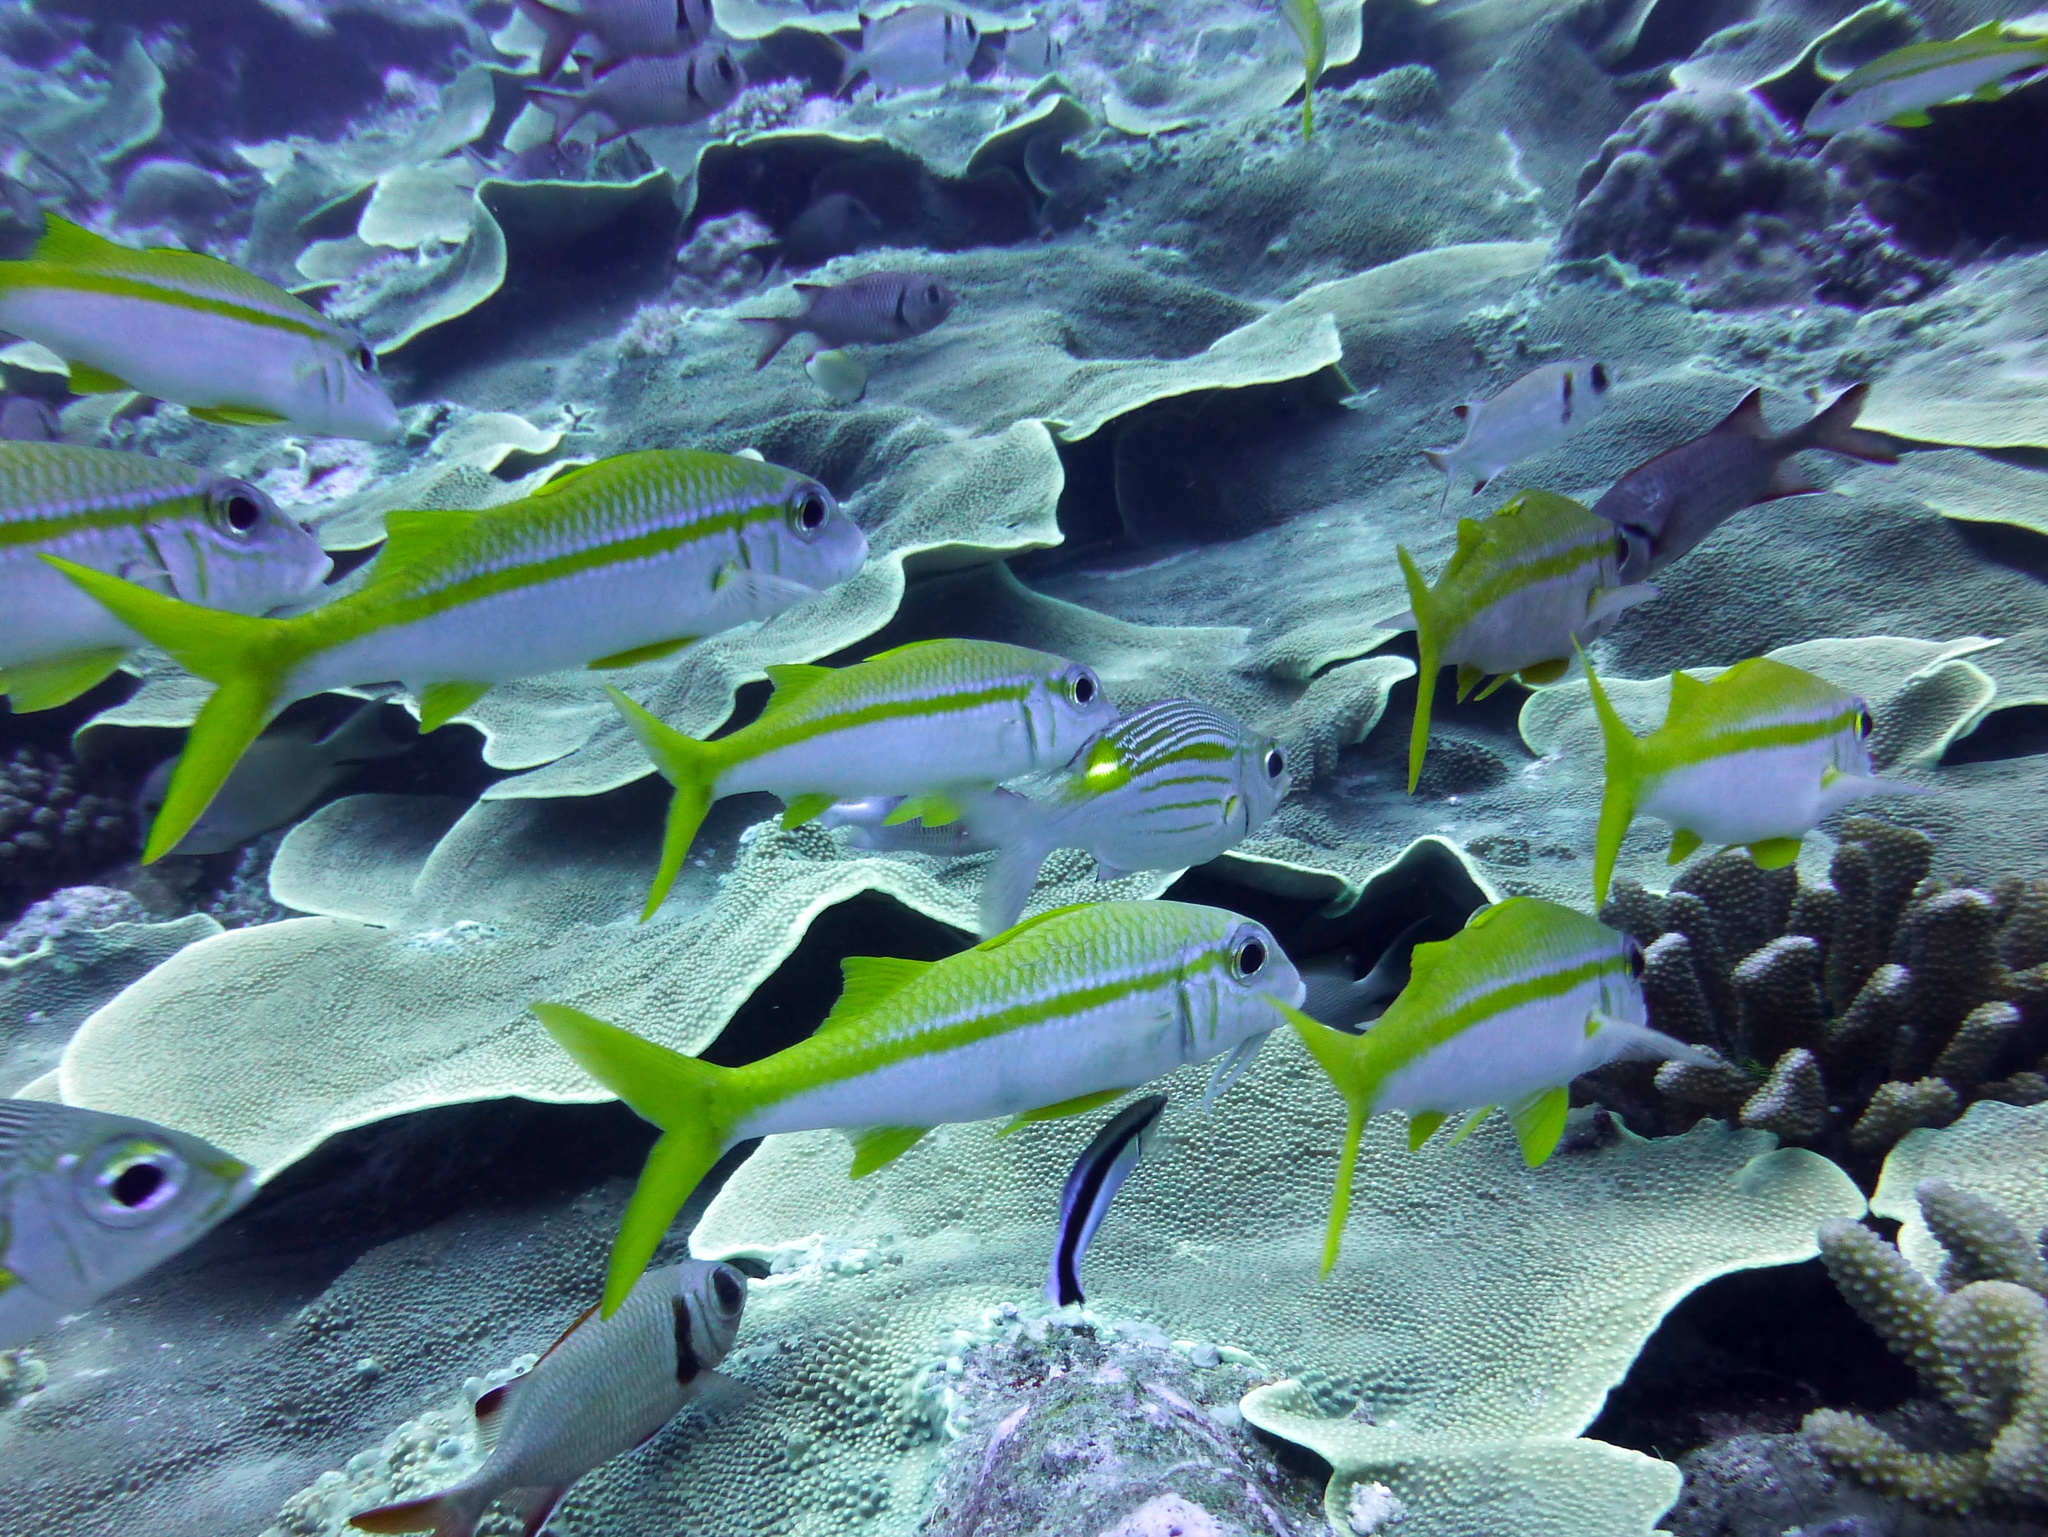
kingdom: Animalia
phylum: Chordata
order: Perciformes
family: Mullidae
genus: Mulloidichthys
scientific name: Mulloidichthys vanicolensis
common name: Yellowfin goatfish
